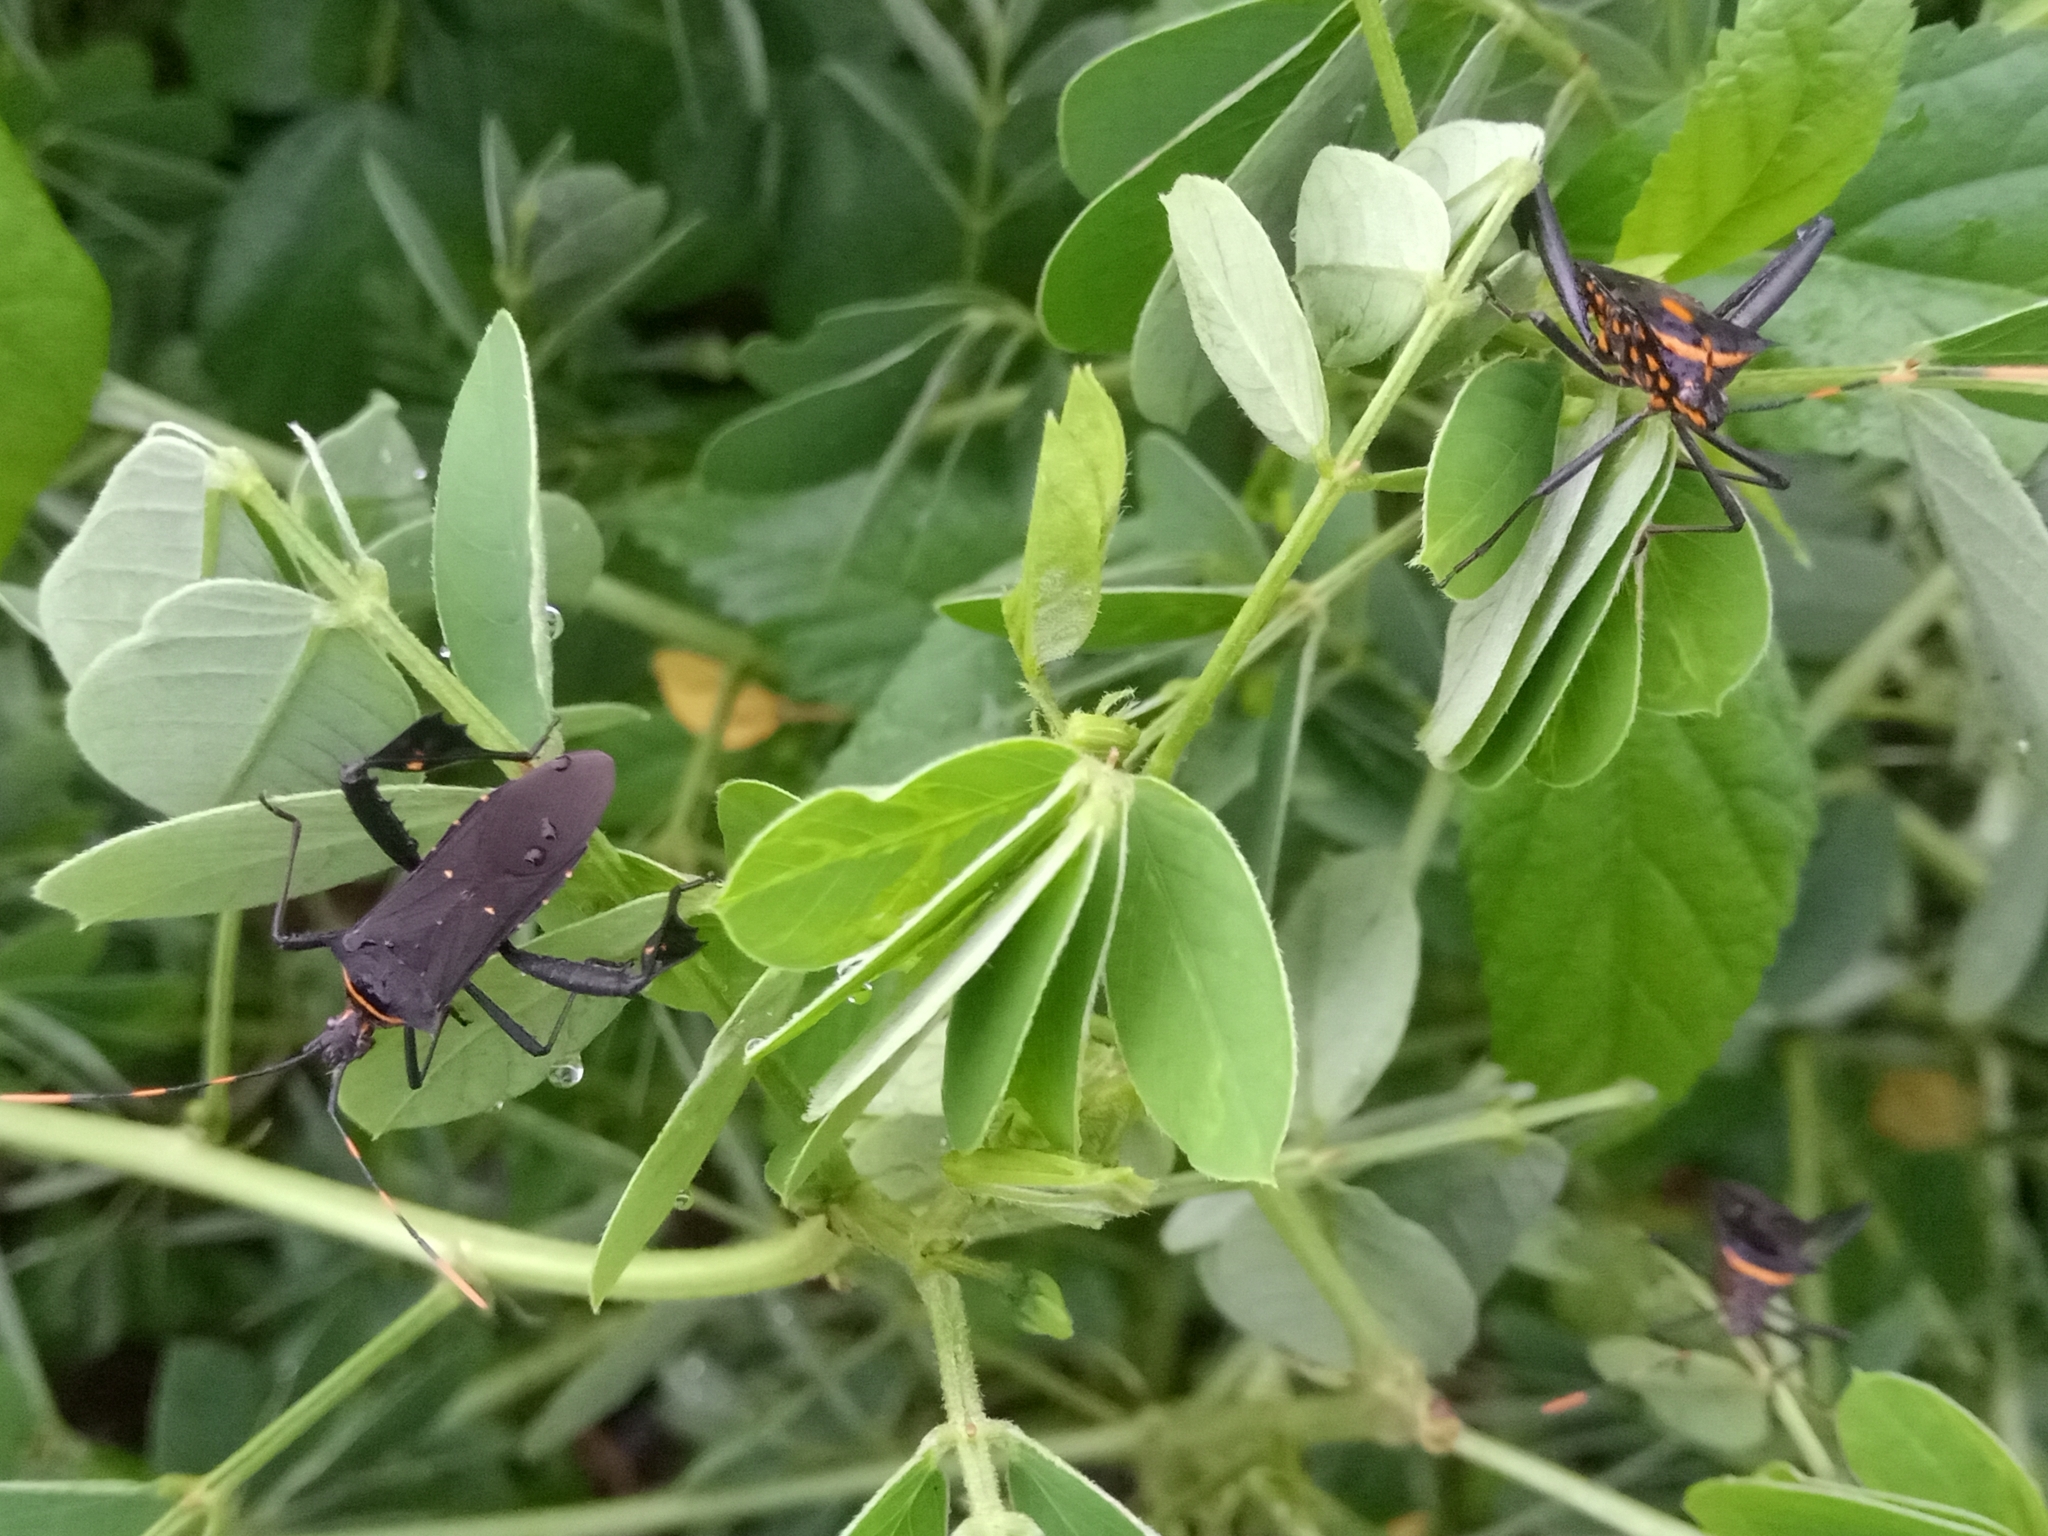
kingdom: Animalia
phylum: Arthropoda
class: Insecta
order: Hemiptera
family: Coreidae
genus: Leptoglossus
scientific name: Leptoglossus gonagra
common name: Citron bug
